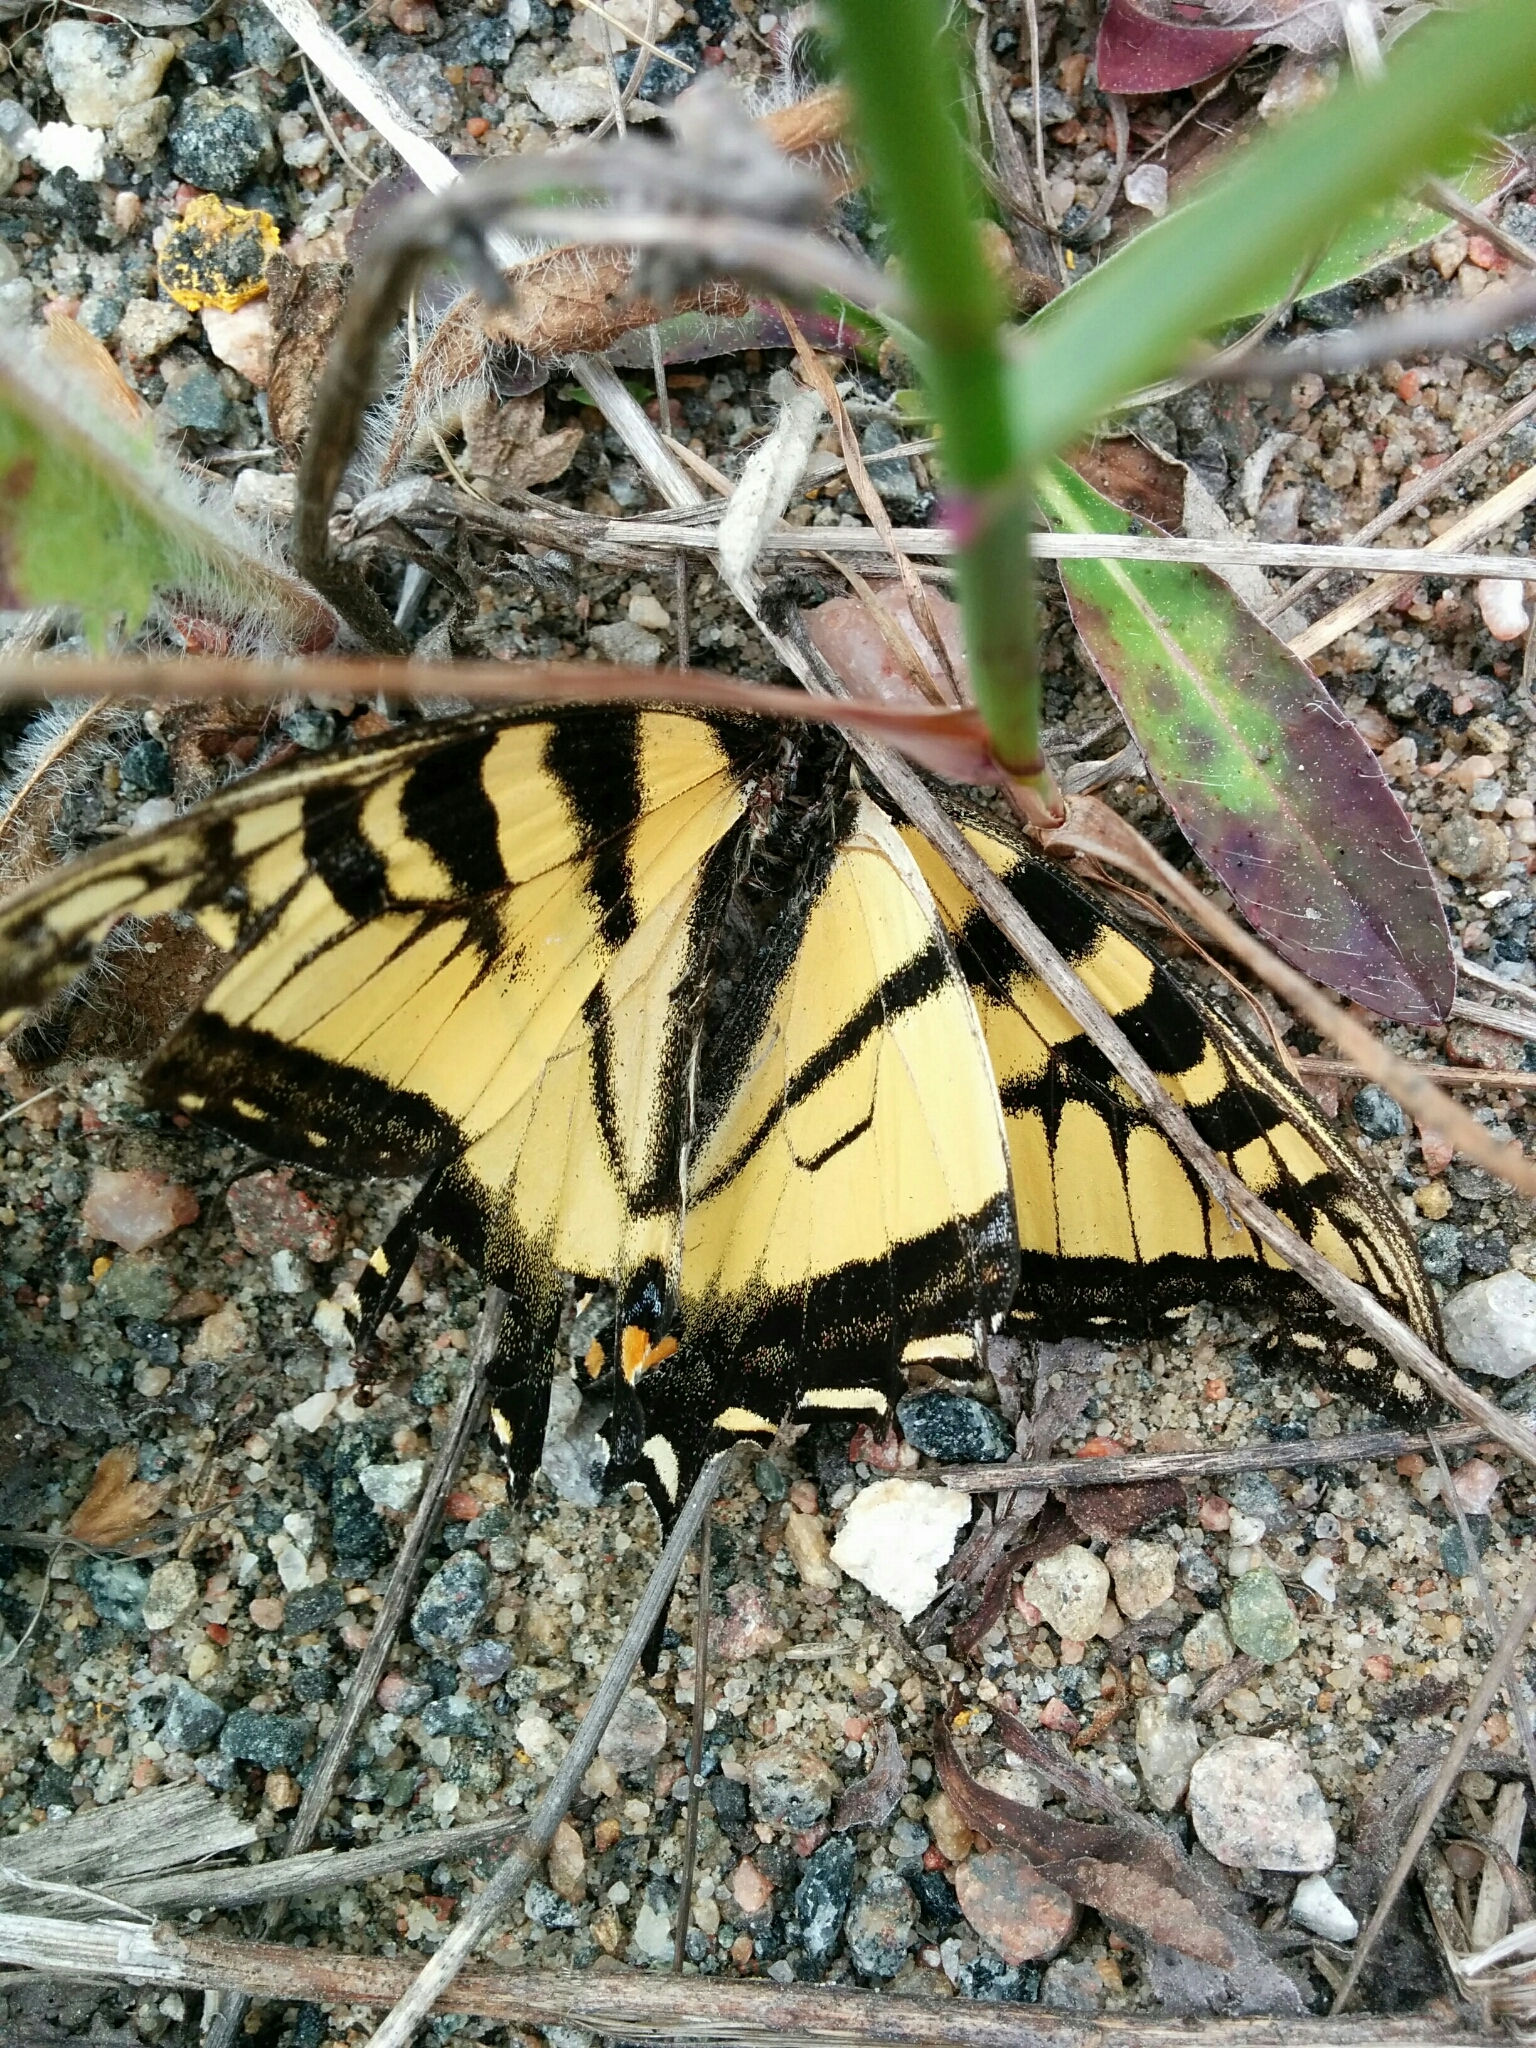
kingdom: Animalia
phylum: Arthropoda
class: Insecta
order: Lepidoptera
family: Papilionidae
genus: Papilio
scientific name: Papilio canadensis
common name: Canadian tiger swallowtail
